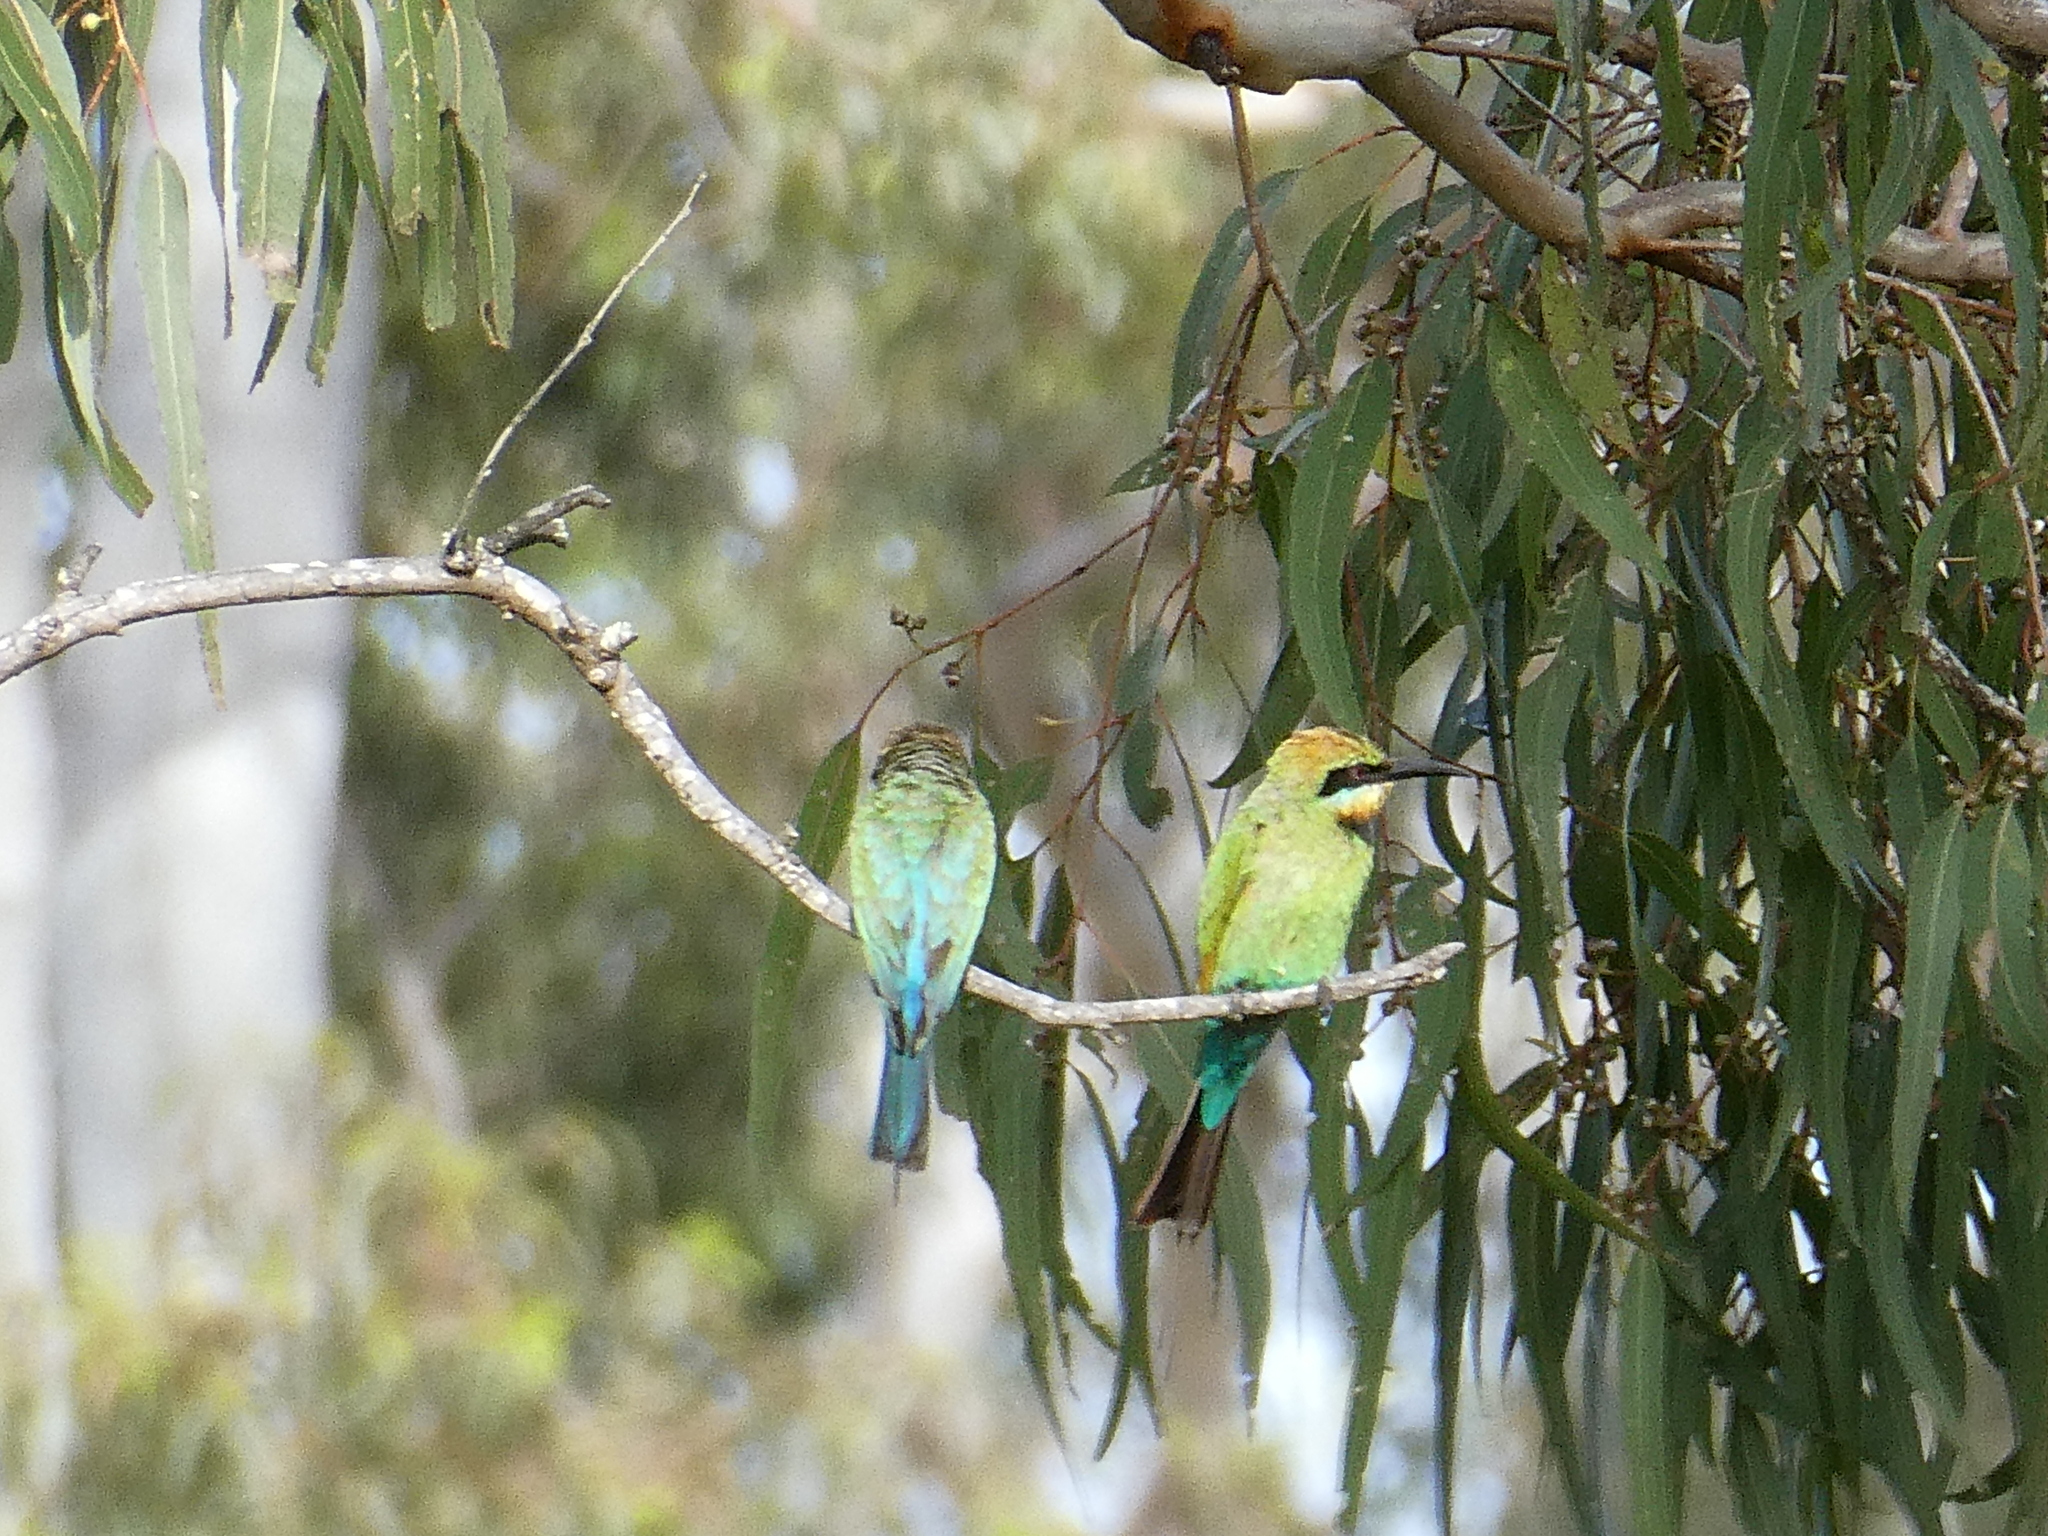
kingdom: Animalia
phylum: Chordata
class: Aves
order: Coraciiformes
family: Meropidae
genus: Merops
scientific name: Merops ornatus
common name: Rainbow bee-eater
